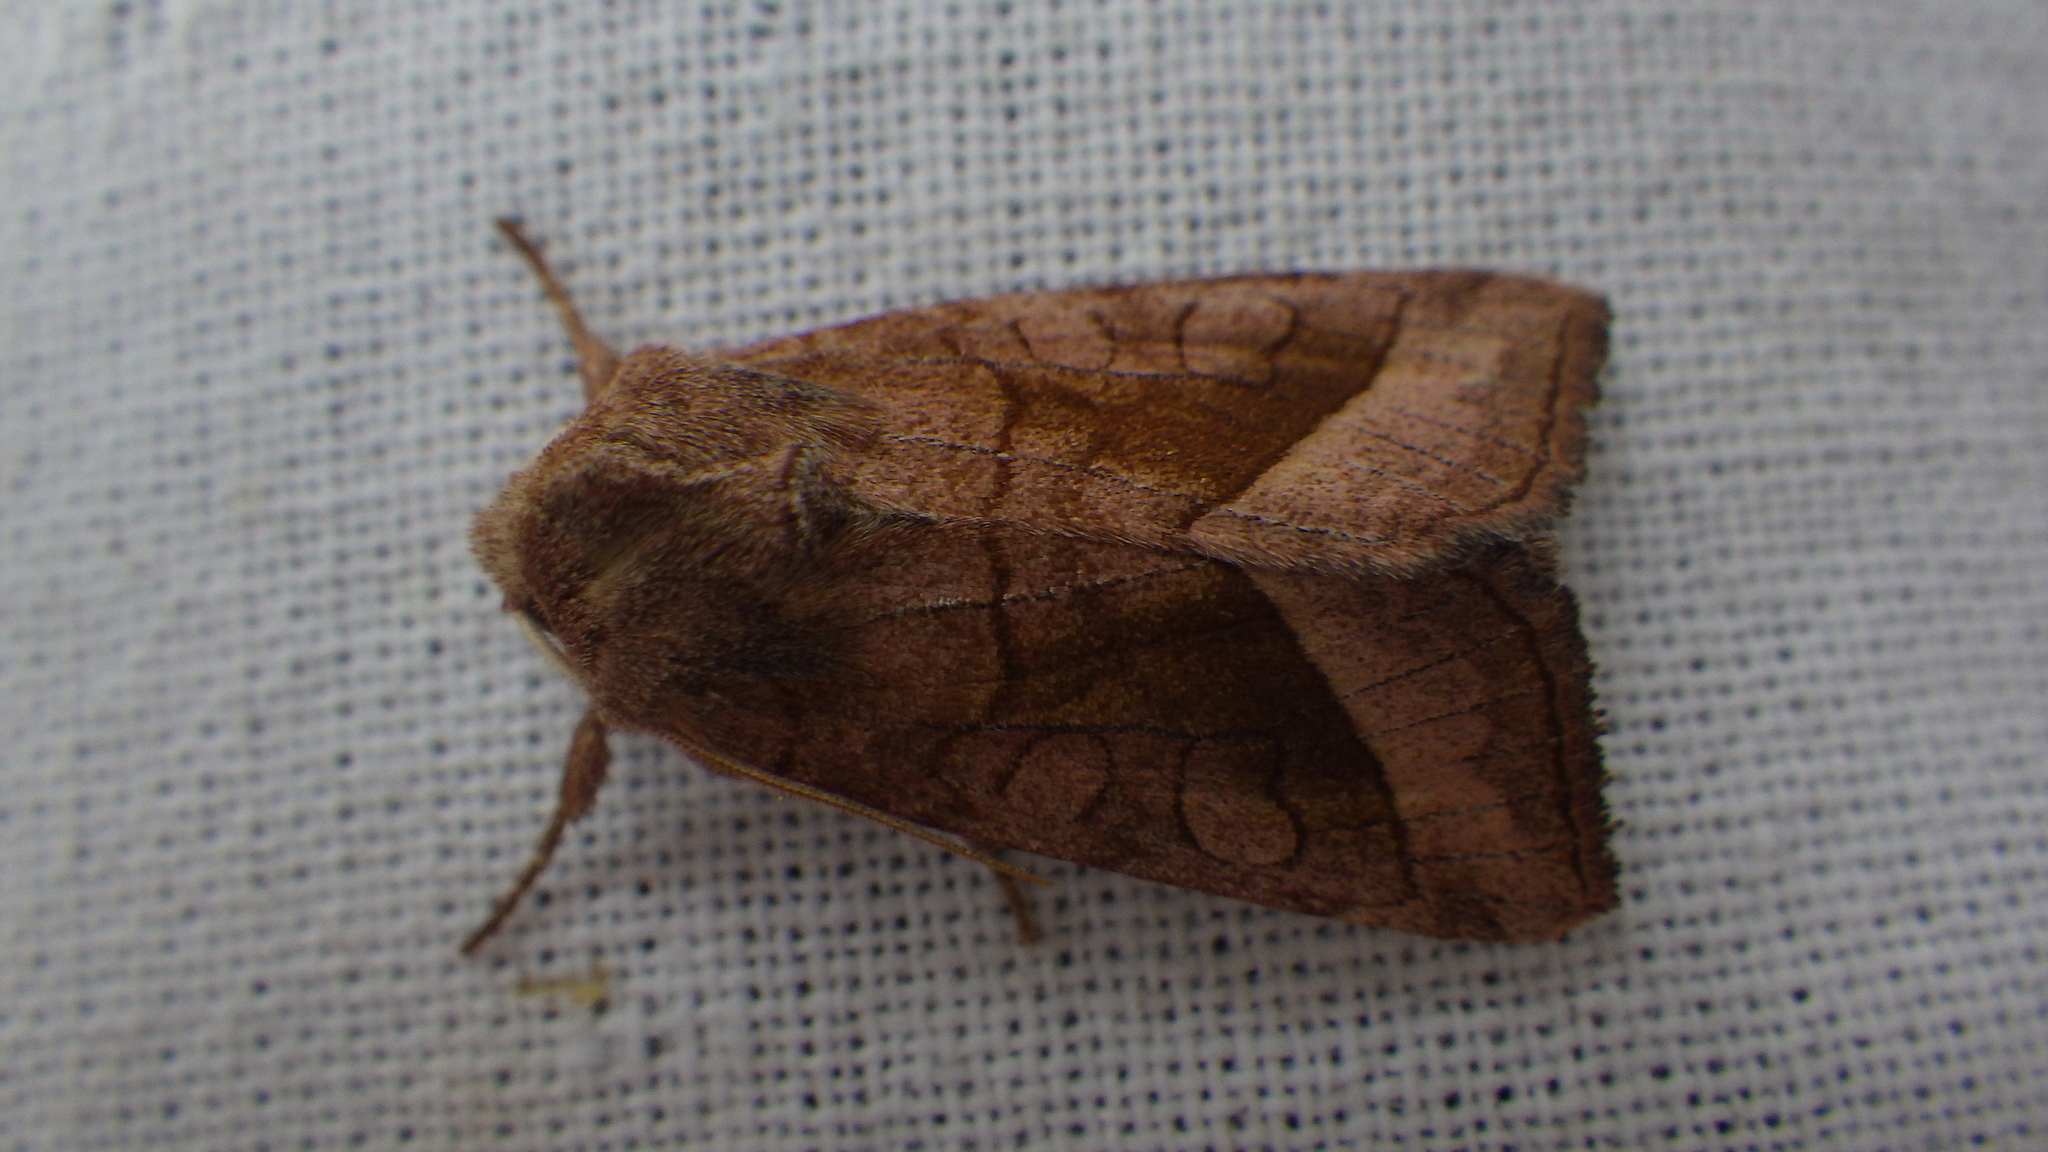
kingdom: Animalia
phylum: Arthropoda
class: Insecta
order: Lepidoptera
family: Noctuidae
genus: Hydraecia
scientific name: Hydraecia micacea
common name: Rosy rustic
